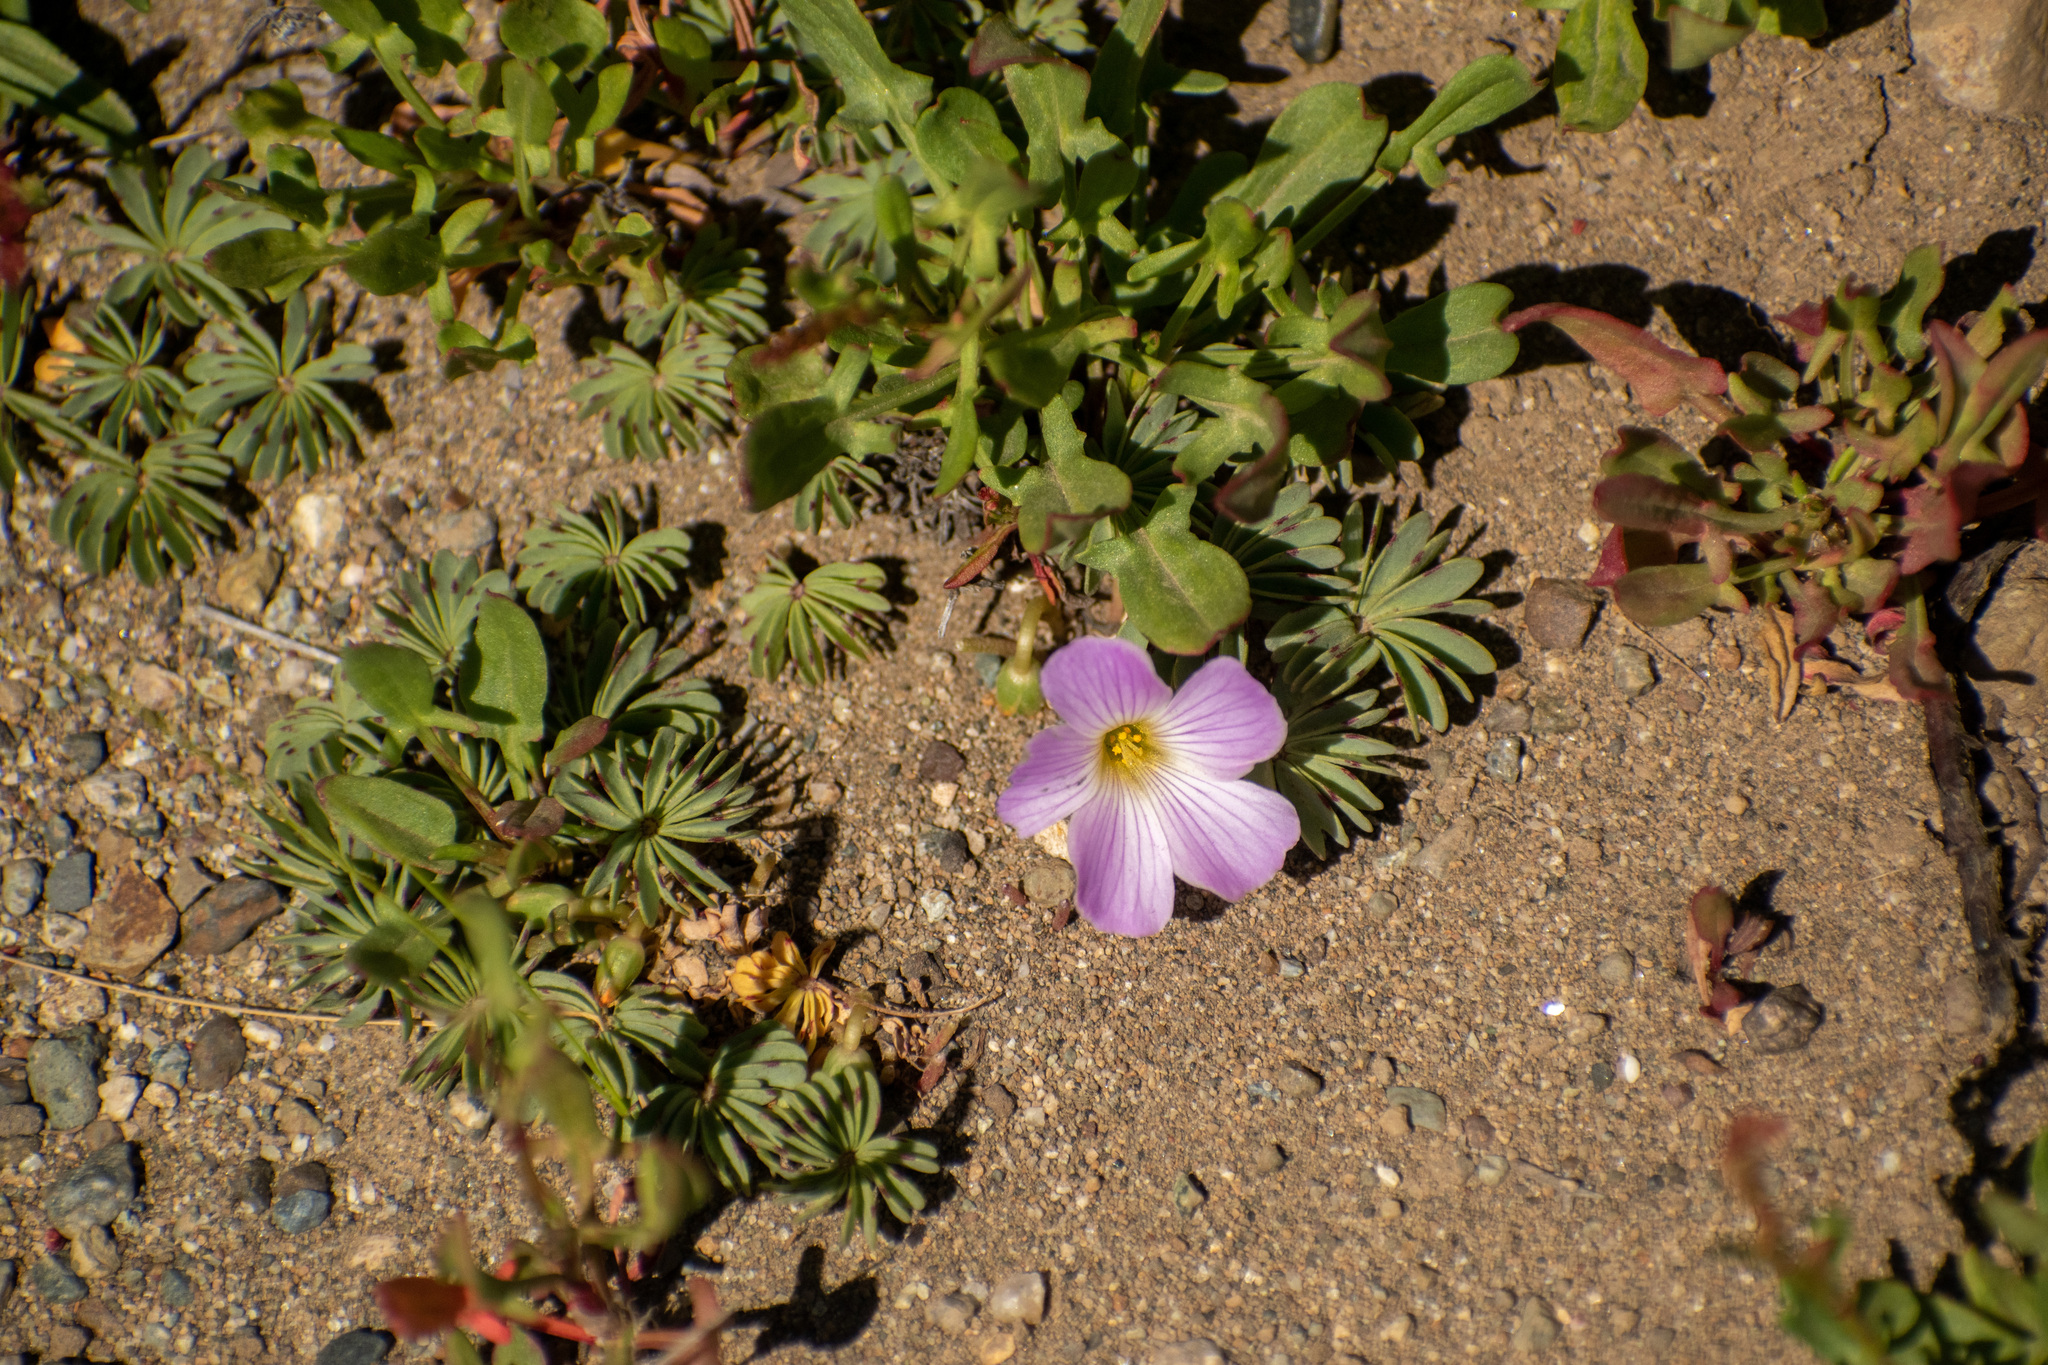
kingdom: Plantae
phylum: Tracheophyta
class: Magnoliopsida
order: Oxalidales
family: Oxalidaceae
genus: Oxalis
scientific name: Oxalis adenophylla
